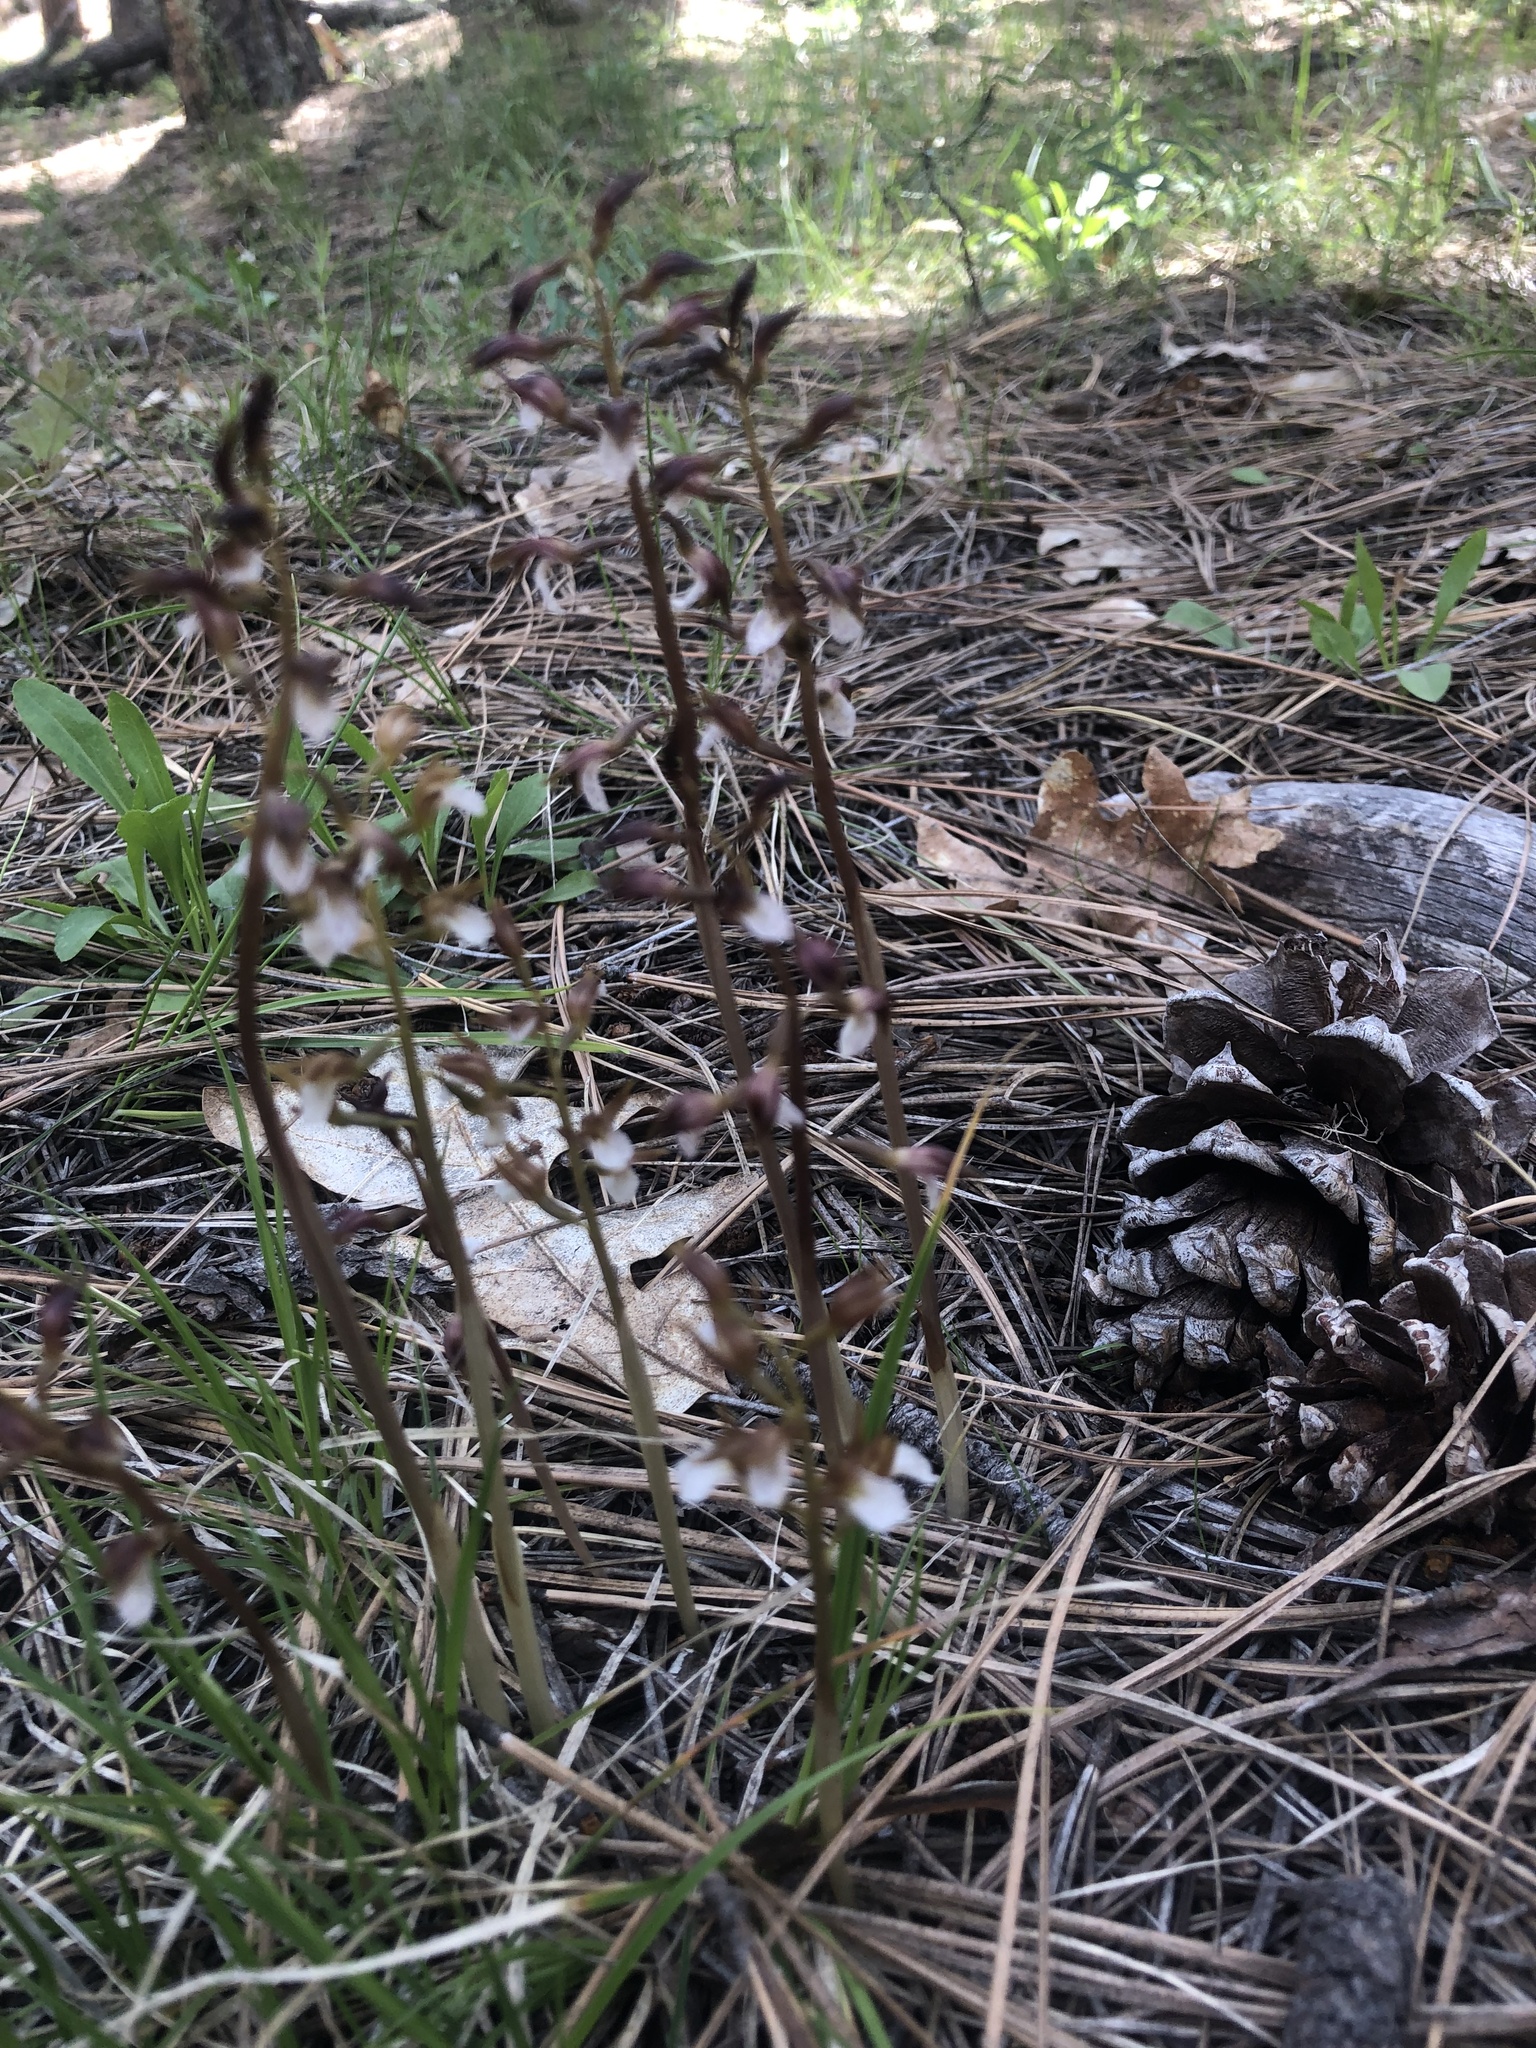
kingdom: Plantae
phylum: Tracheophyta
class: Liliopsida
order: Asparagales
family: Orchidaceae
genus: Corallorhiza
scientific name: Corallorhiza wisteriana
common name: Spring coralroot
